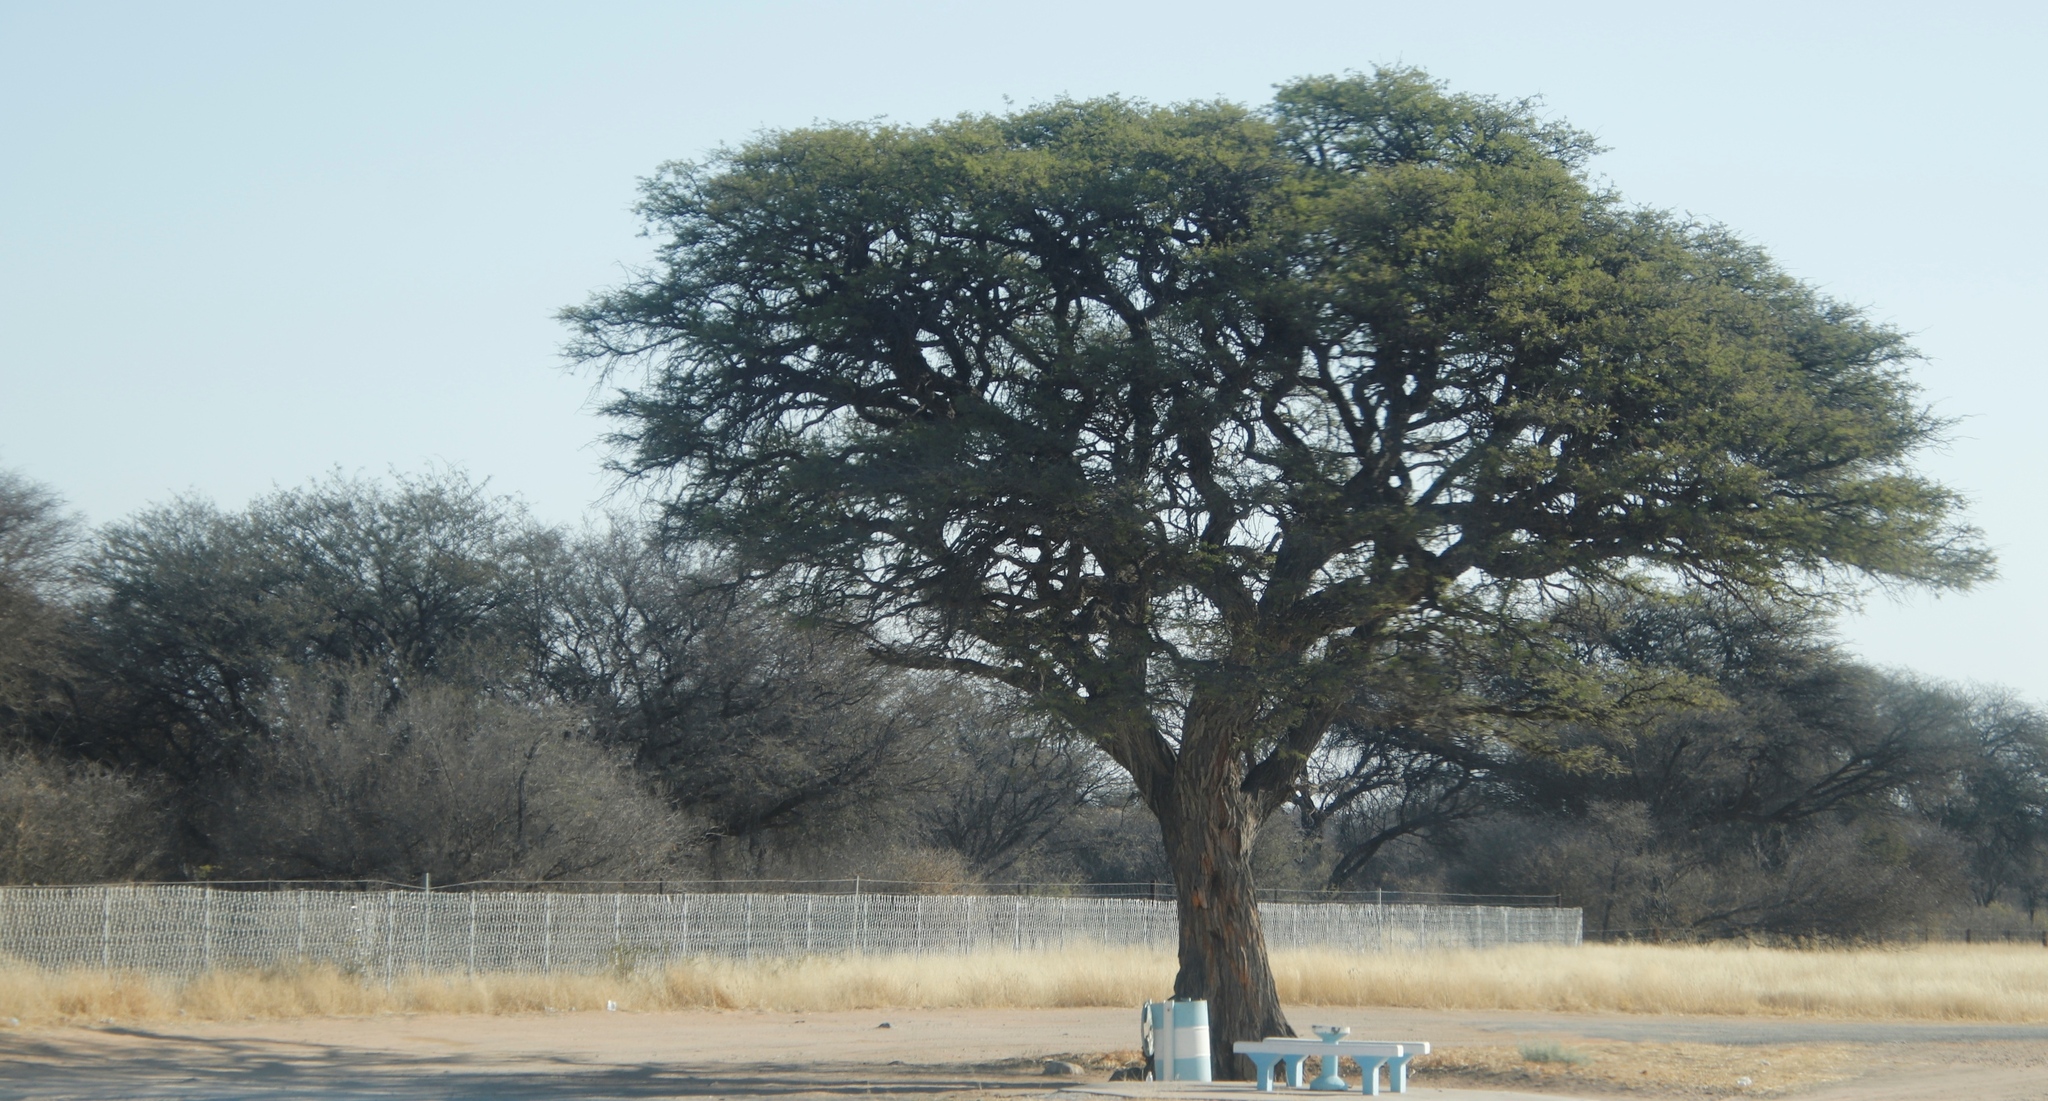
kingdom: Plantae
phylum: Tracheophyta
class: Magnoliopsida
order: Fabales
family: Fabaceae
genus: Vachellia
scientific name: Vachellia erioloba
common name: Camel thorn
